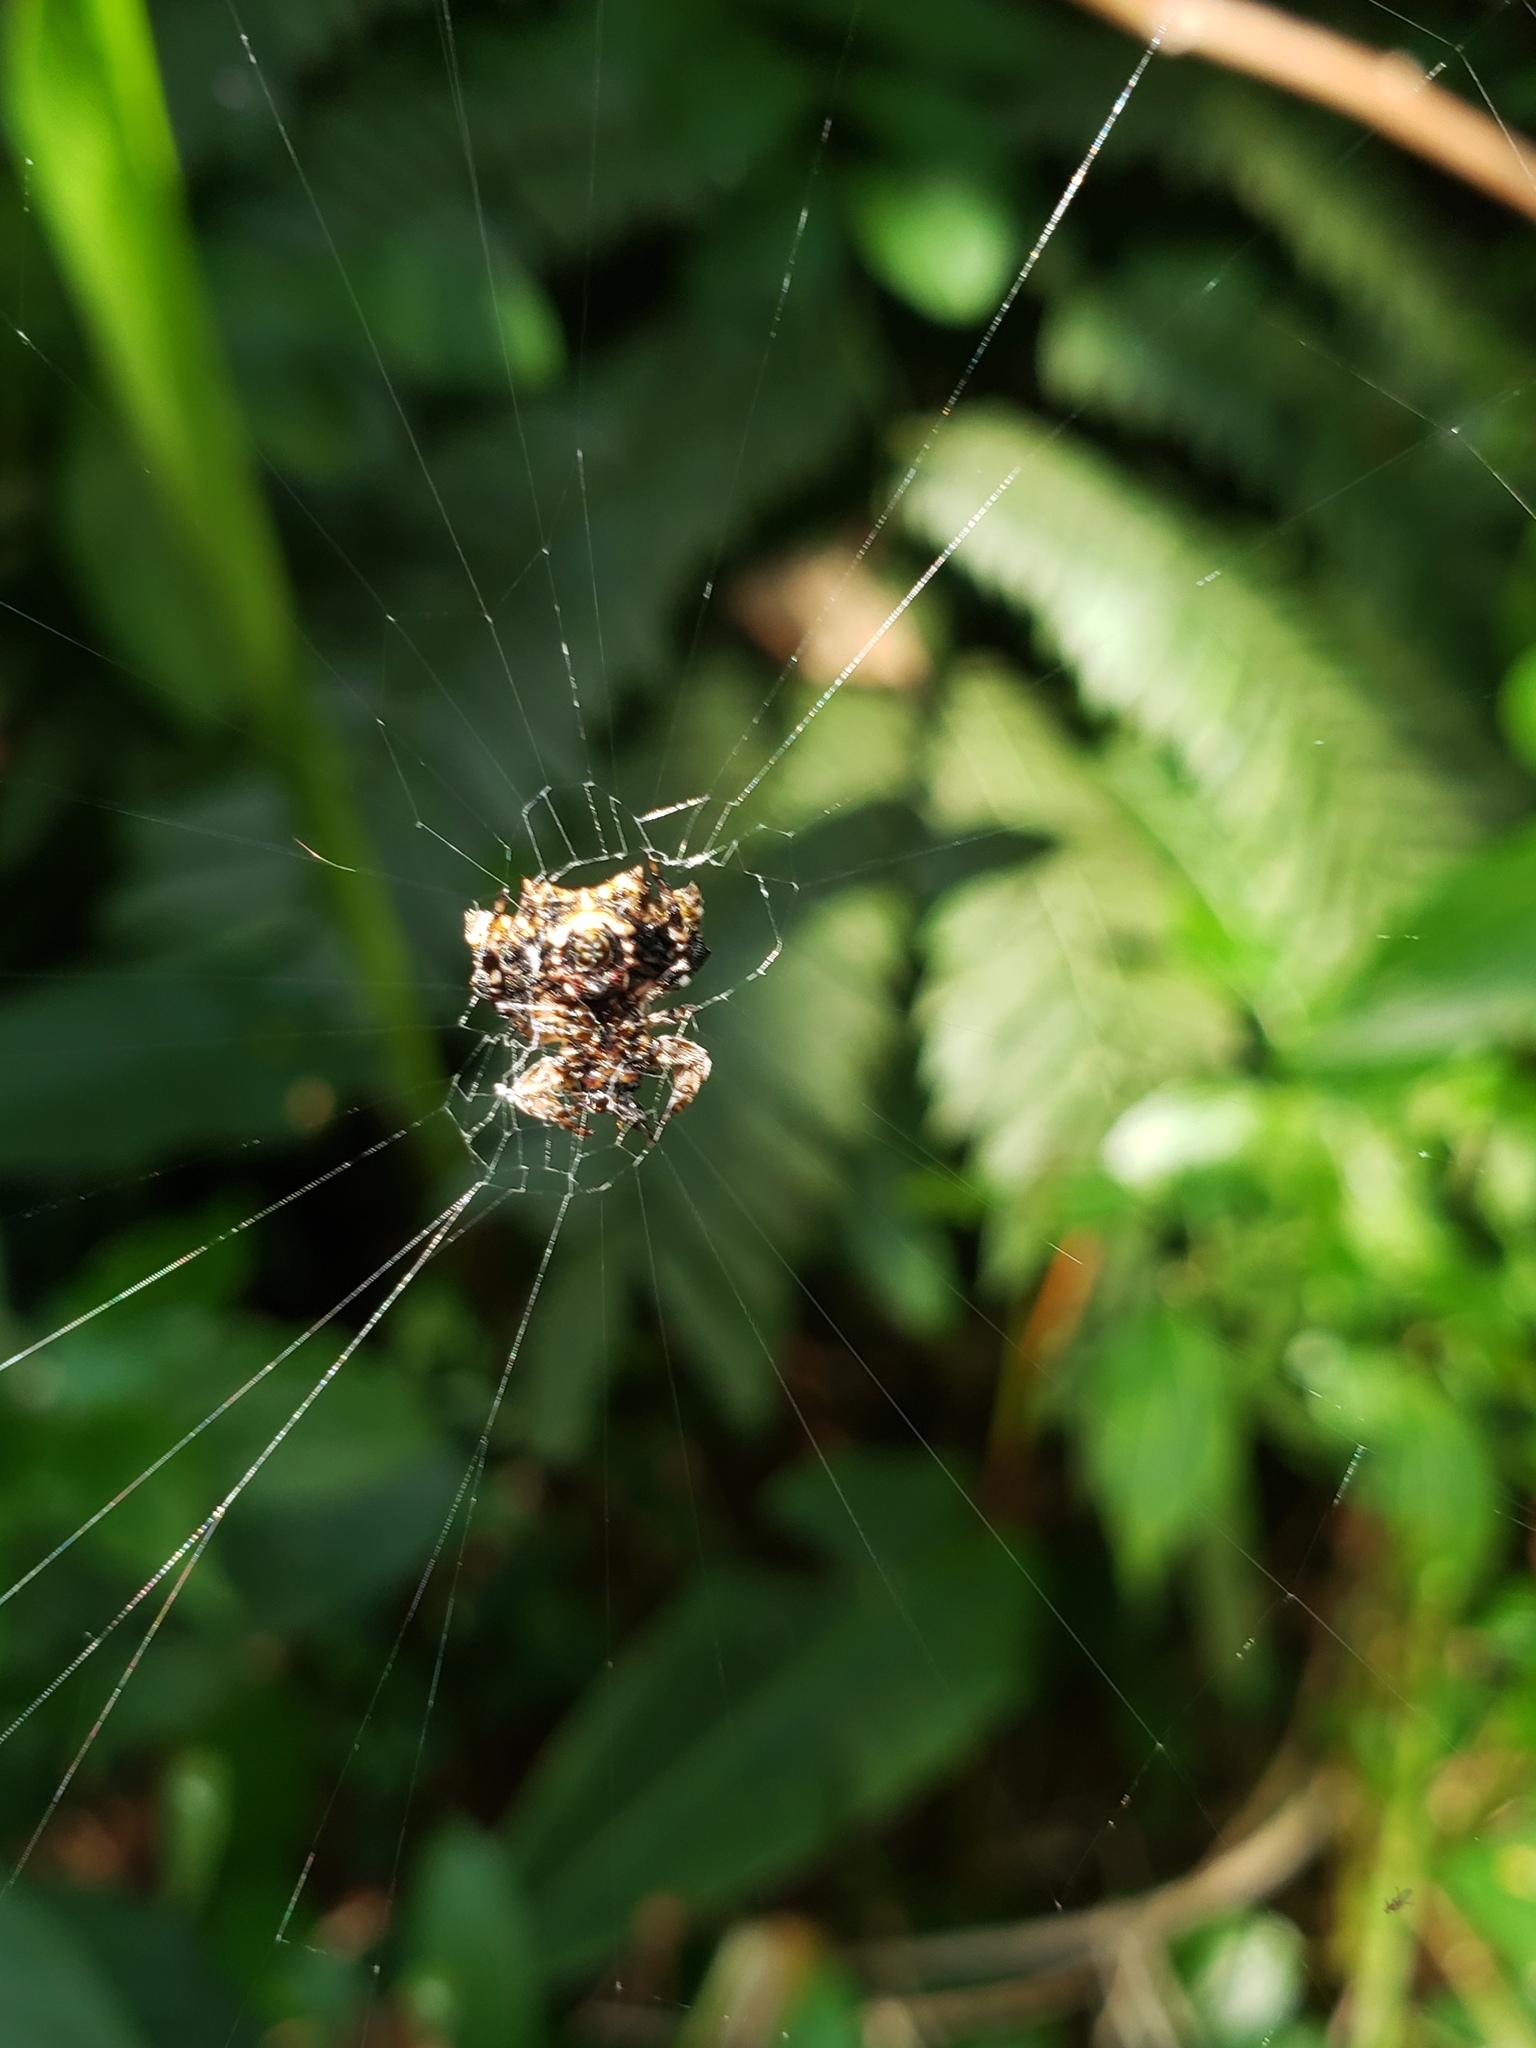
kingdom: Animalia
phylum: Arthropoda
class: Arachnida
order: Araneae
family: Araneidae
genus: Thelacantha
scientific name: Thelacantha brevispina
